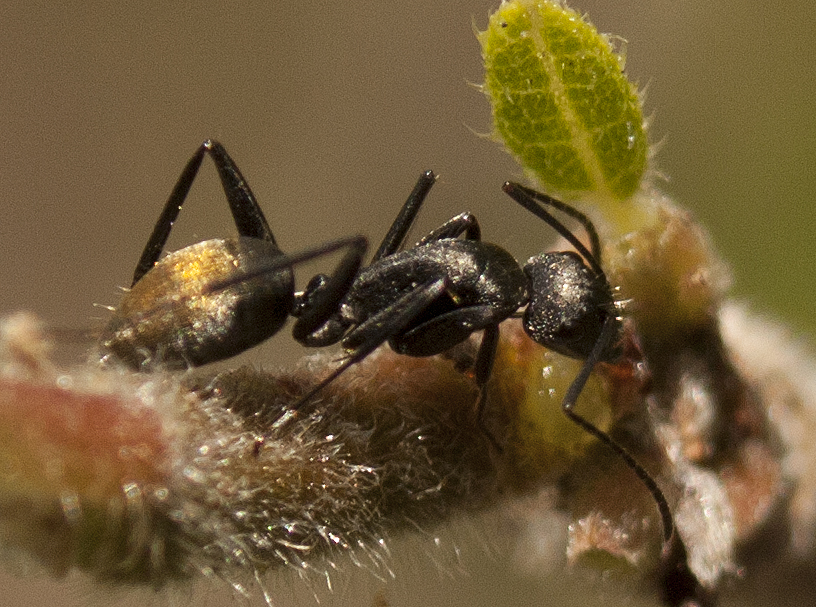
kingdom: Animalia
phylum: Arthropoda
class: Insecta
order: Hymenoptera
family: Formicidae
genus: Camponotus
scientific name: Camponotus aeneopilosus
